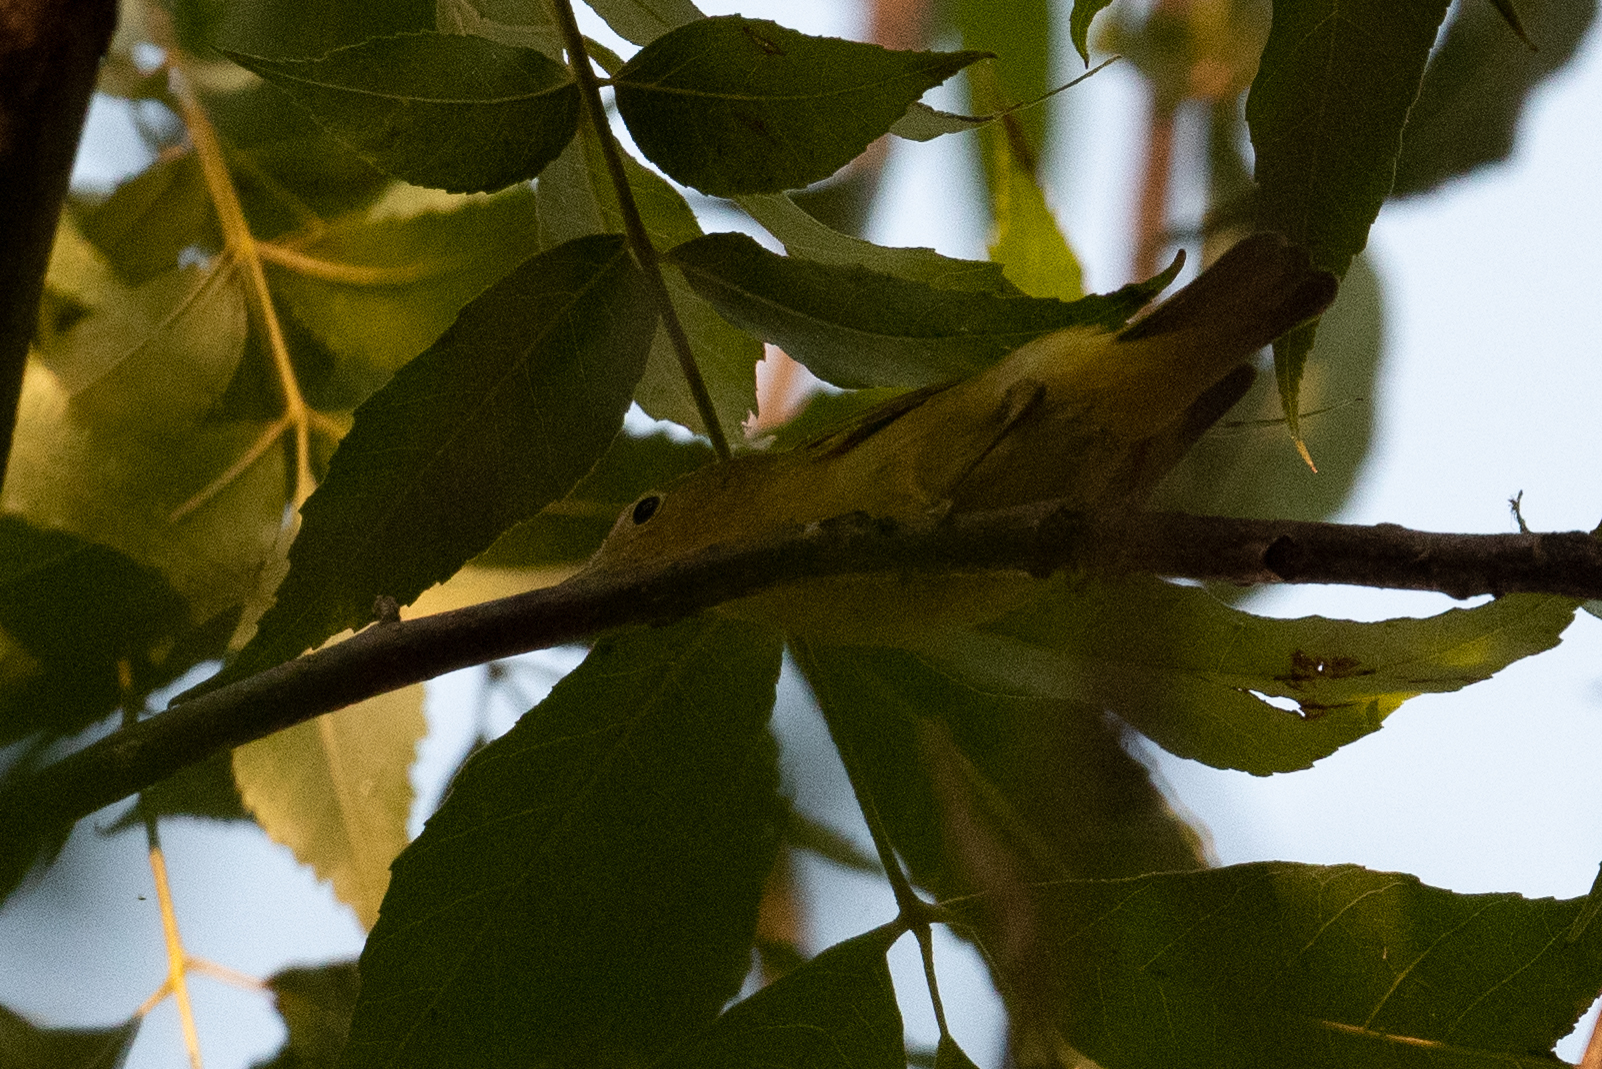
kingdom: Animalia
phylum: Chordata
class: Aves
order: Passeriformes
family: Parulidae
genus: Setophaga
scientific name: Setophaga petechia
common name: Yellow warbler
